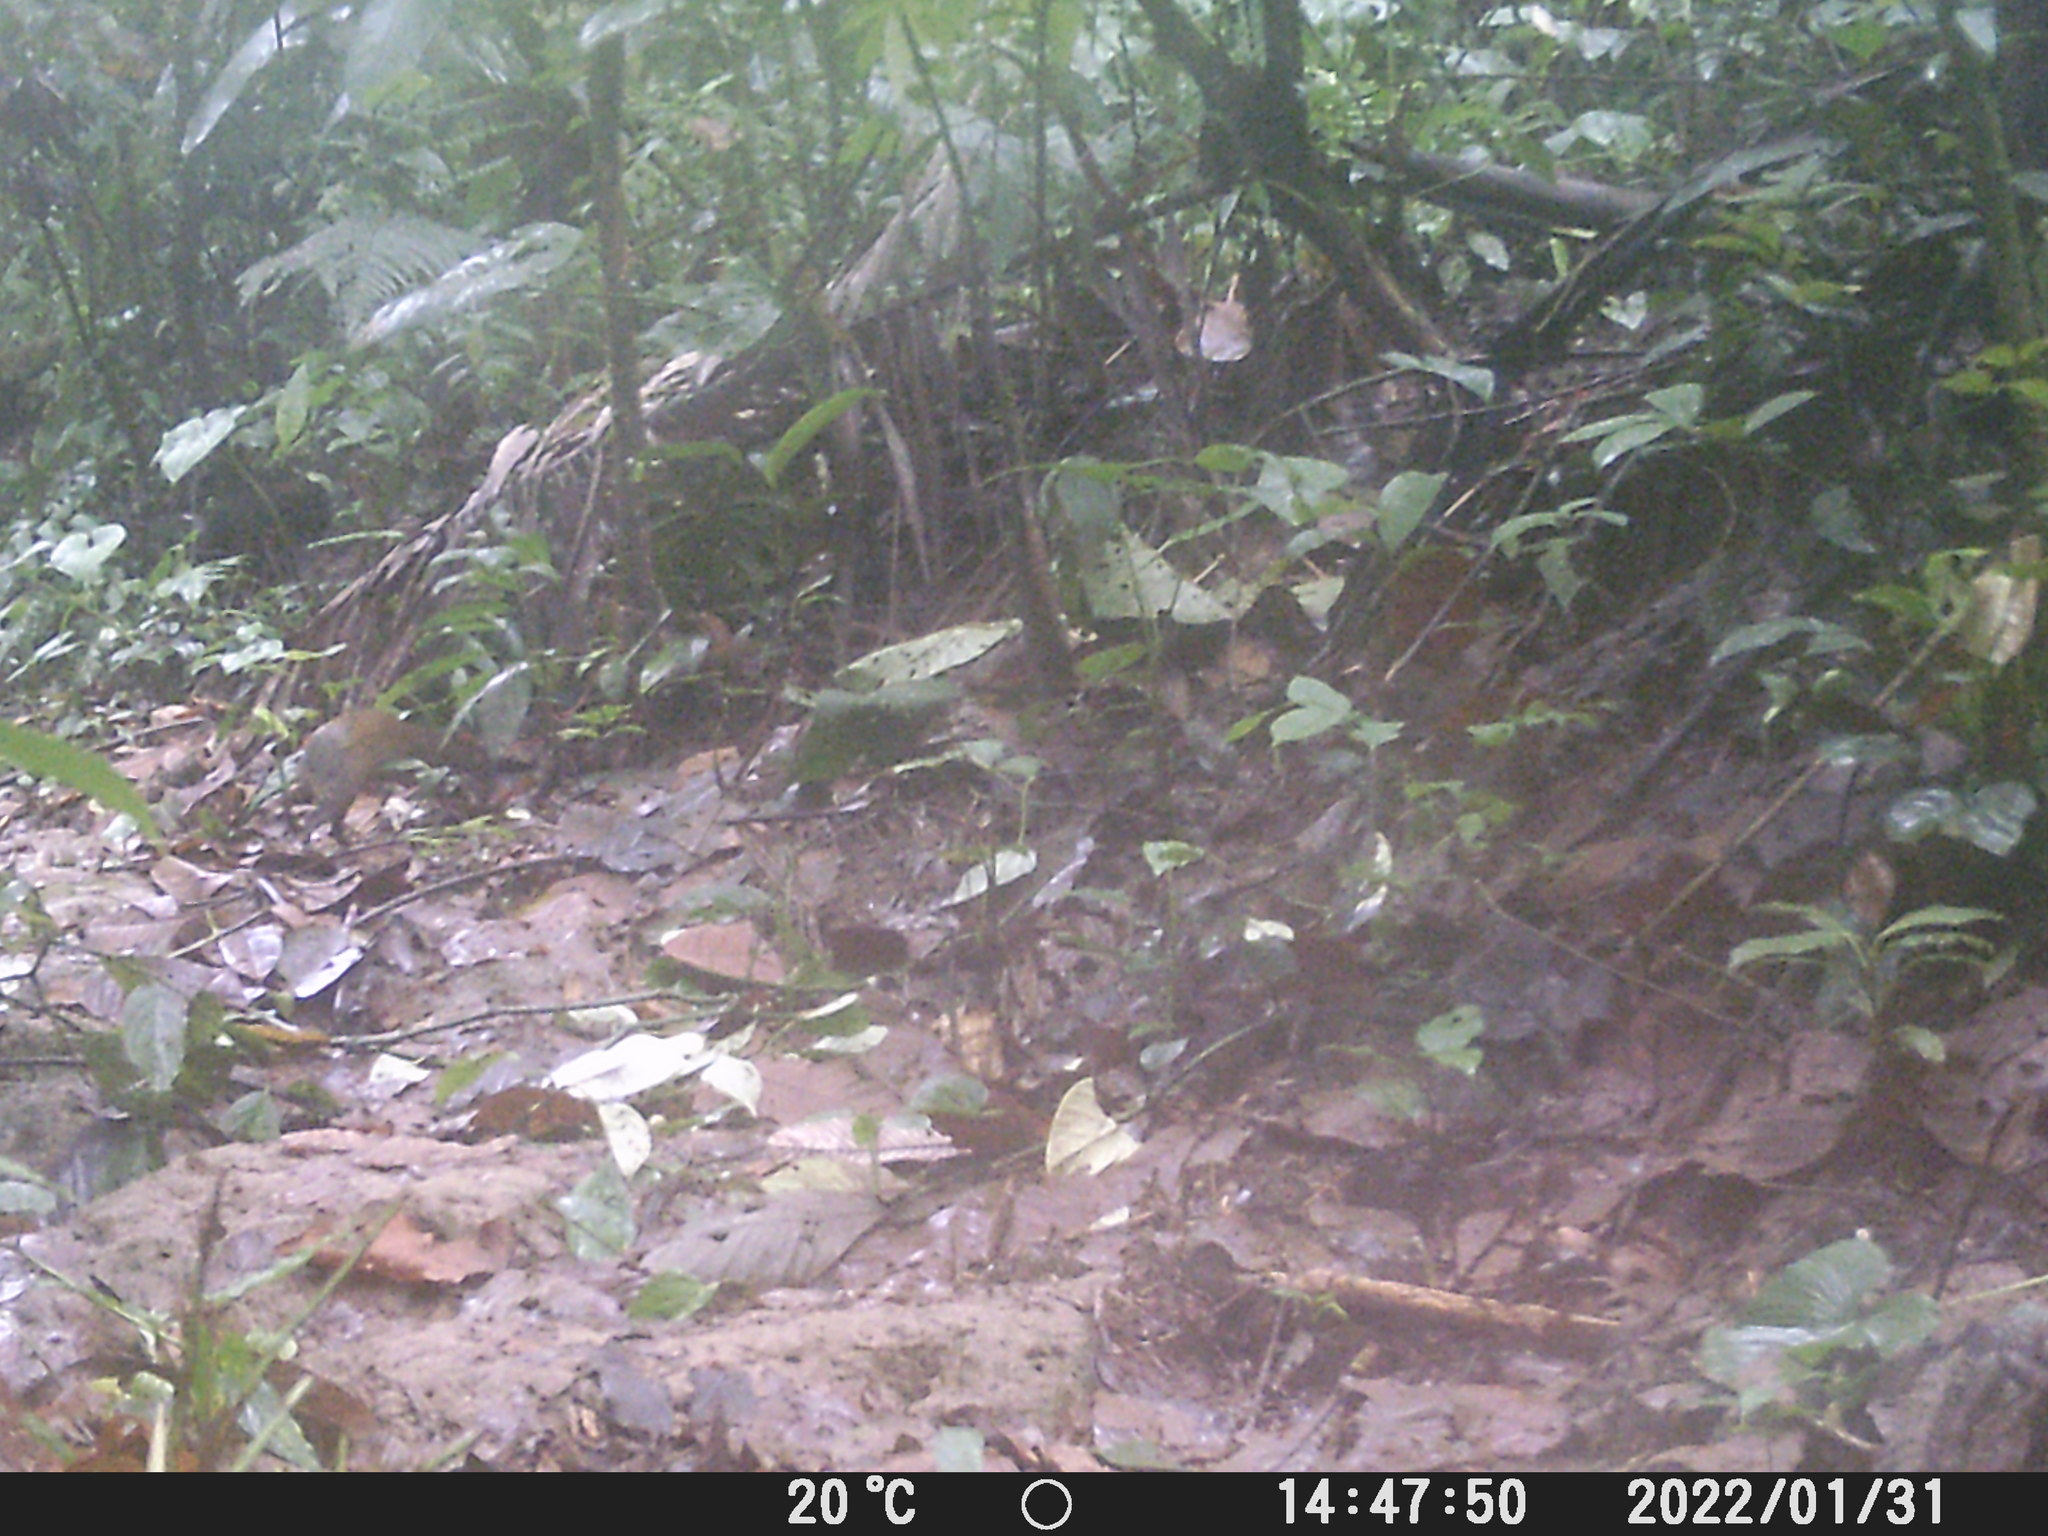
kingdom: Animalia
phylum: Chordata
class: Mammalia
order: Rodentia
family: Dasyproctidae
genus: Dasyprocta
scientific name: Dasyprocta punctata
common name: Central american agouti
